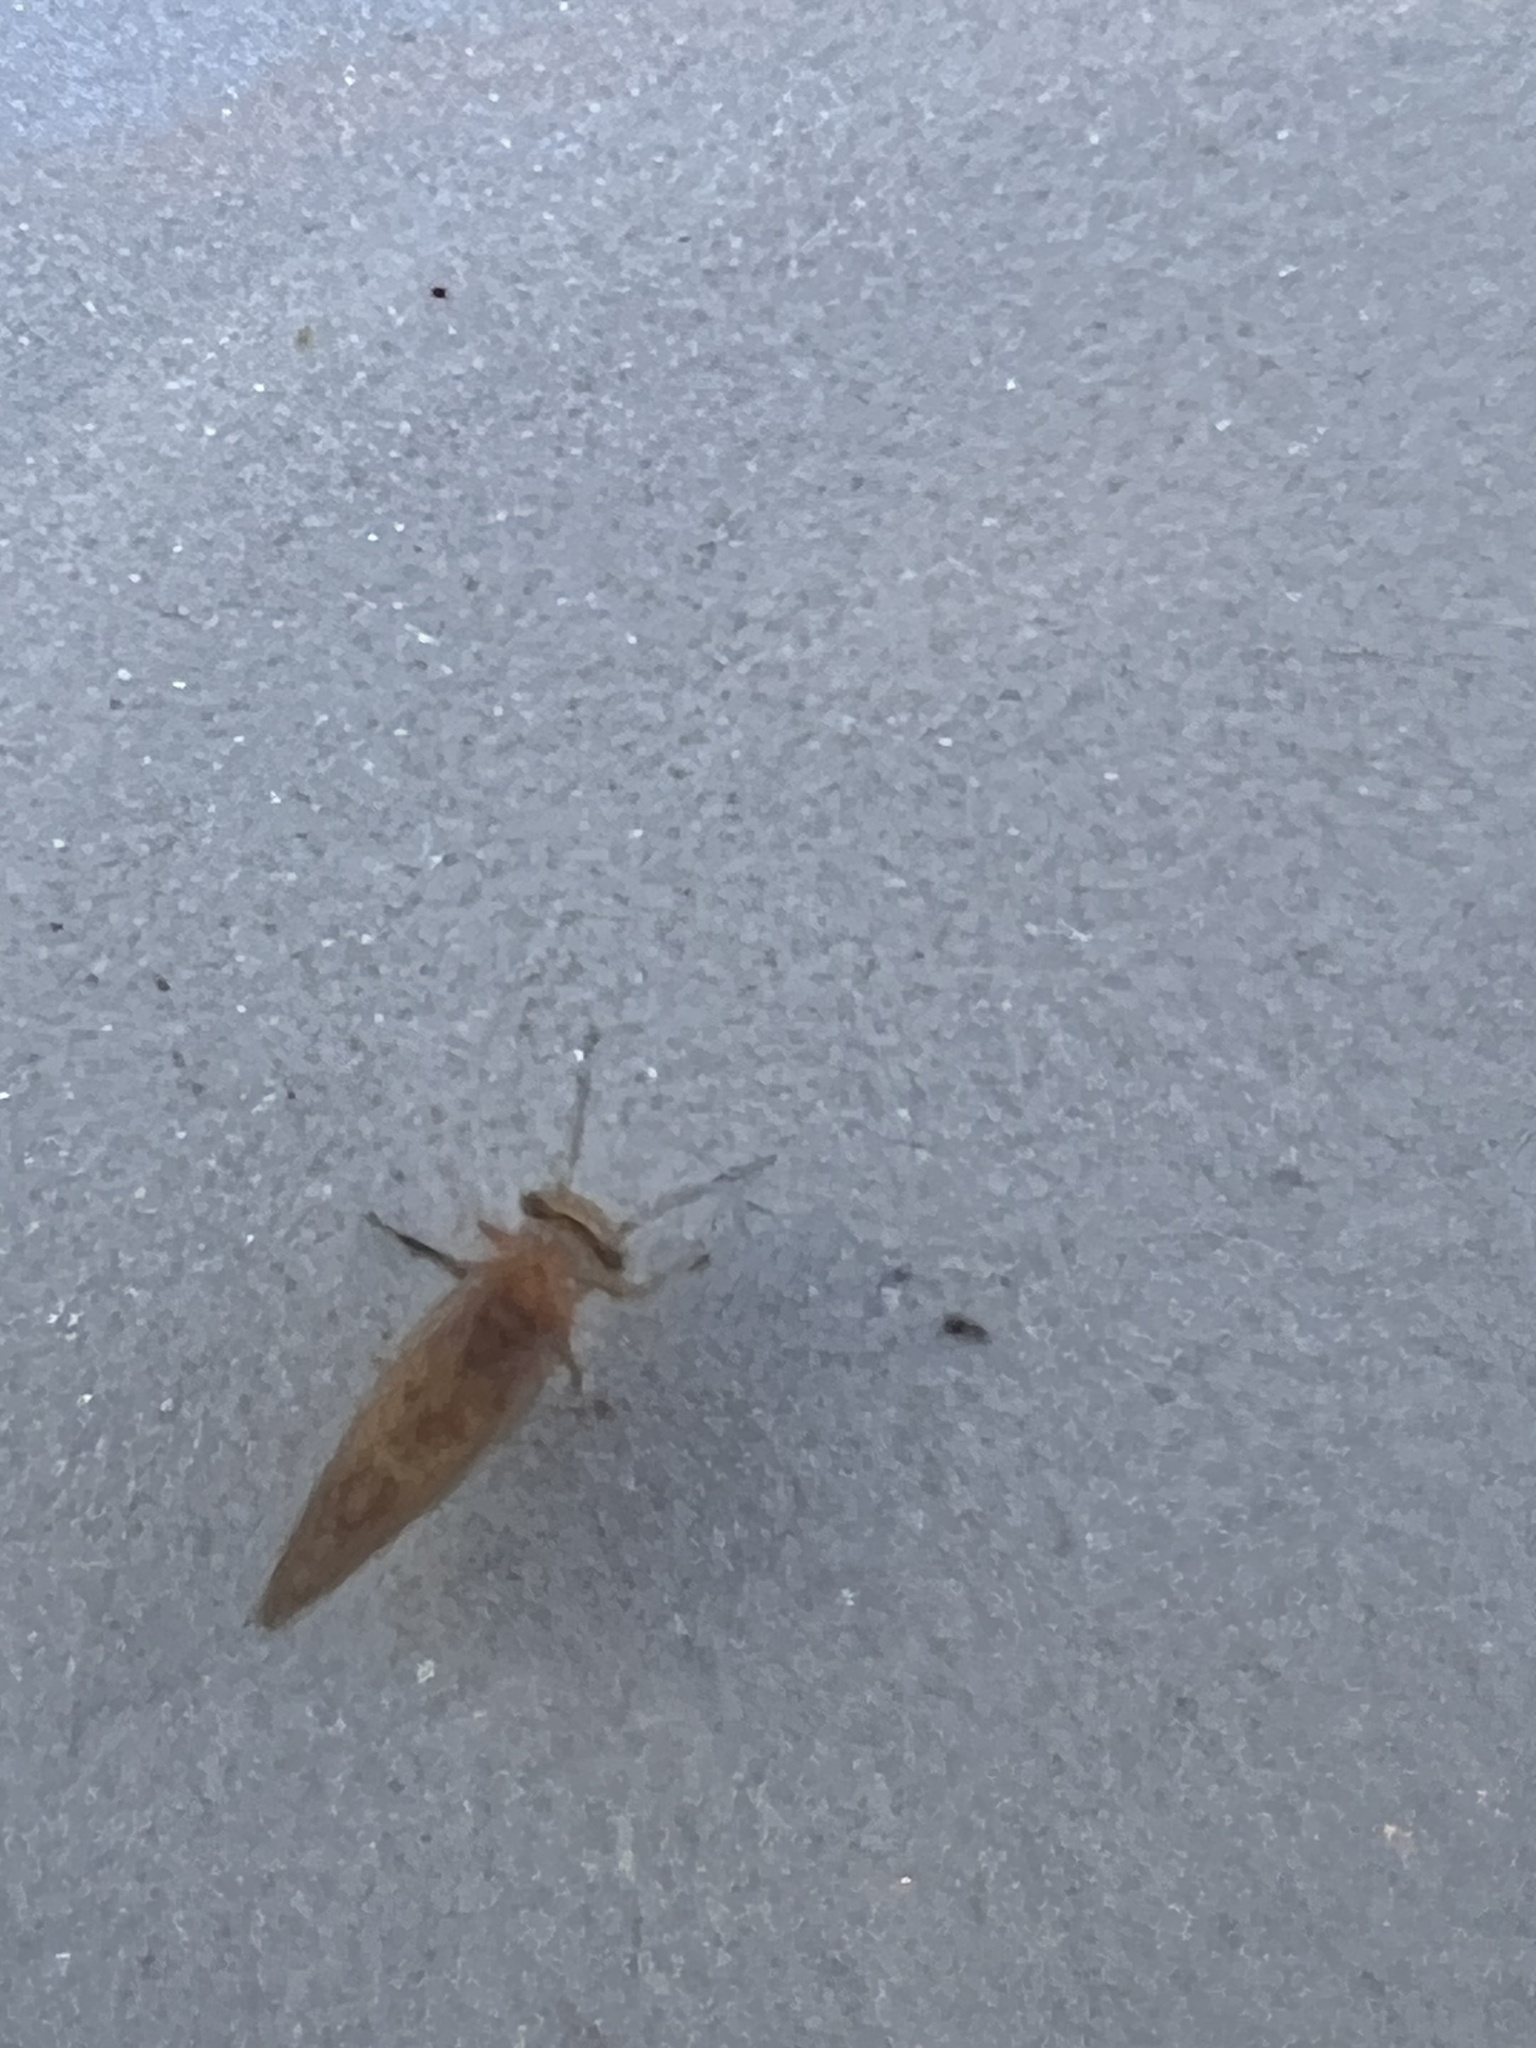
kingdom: Animalia
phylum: Arthropoda
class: Insecta
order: Hemiptera
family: Psyllidae
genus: Acizzia
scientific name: Acizzia uncatoides
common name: Psyllid
